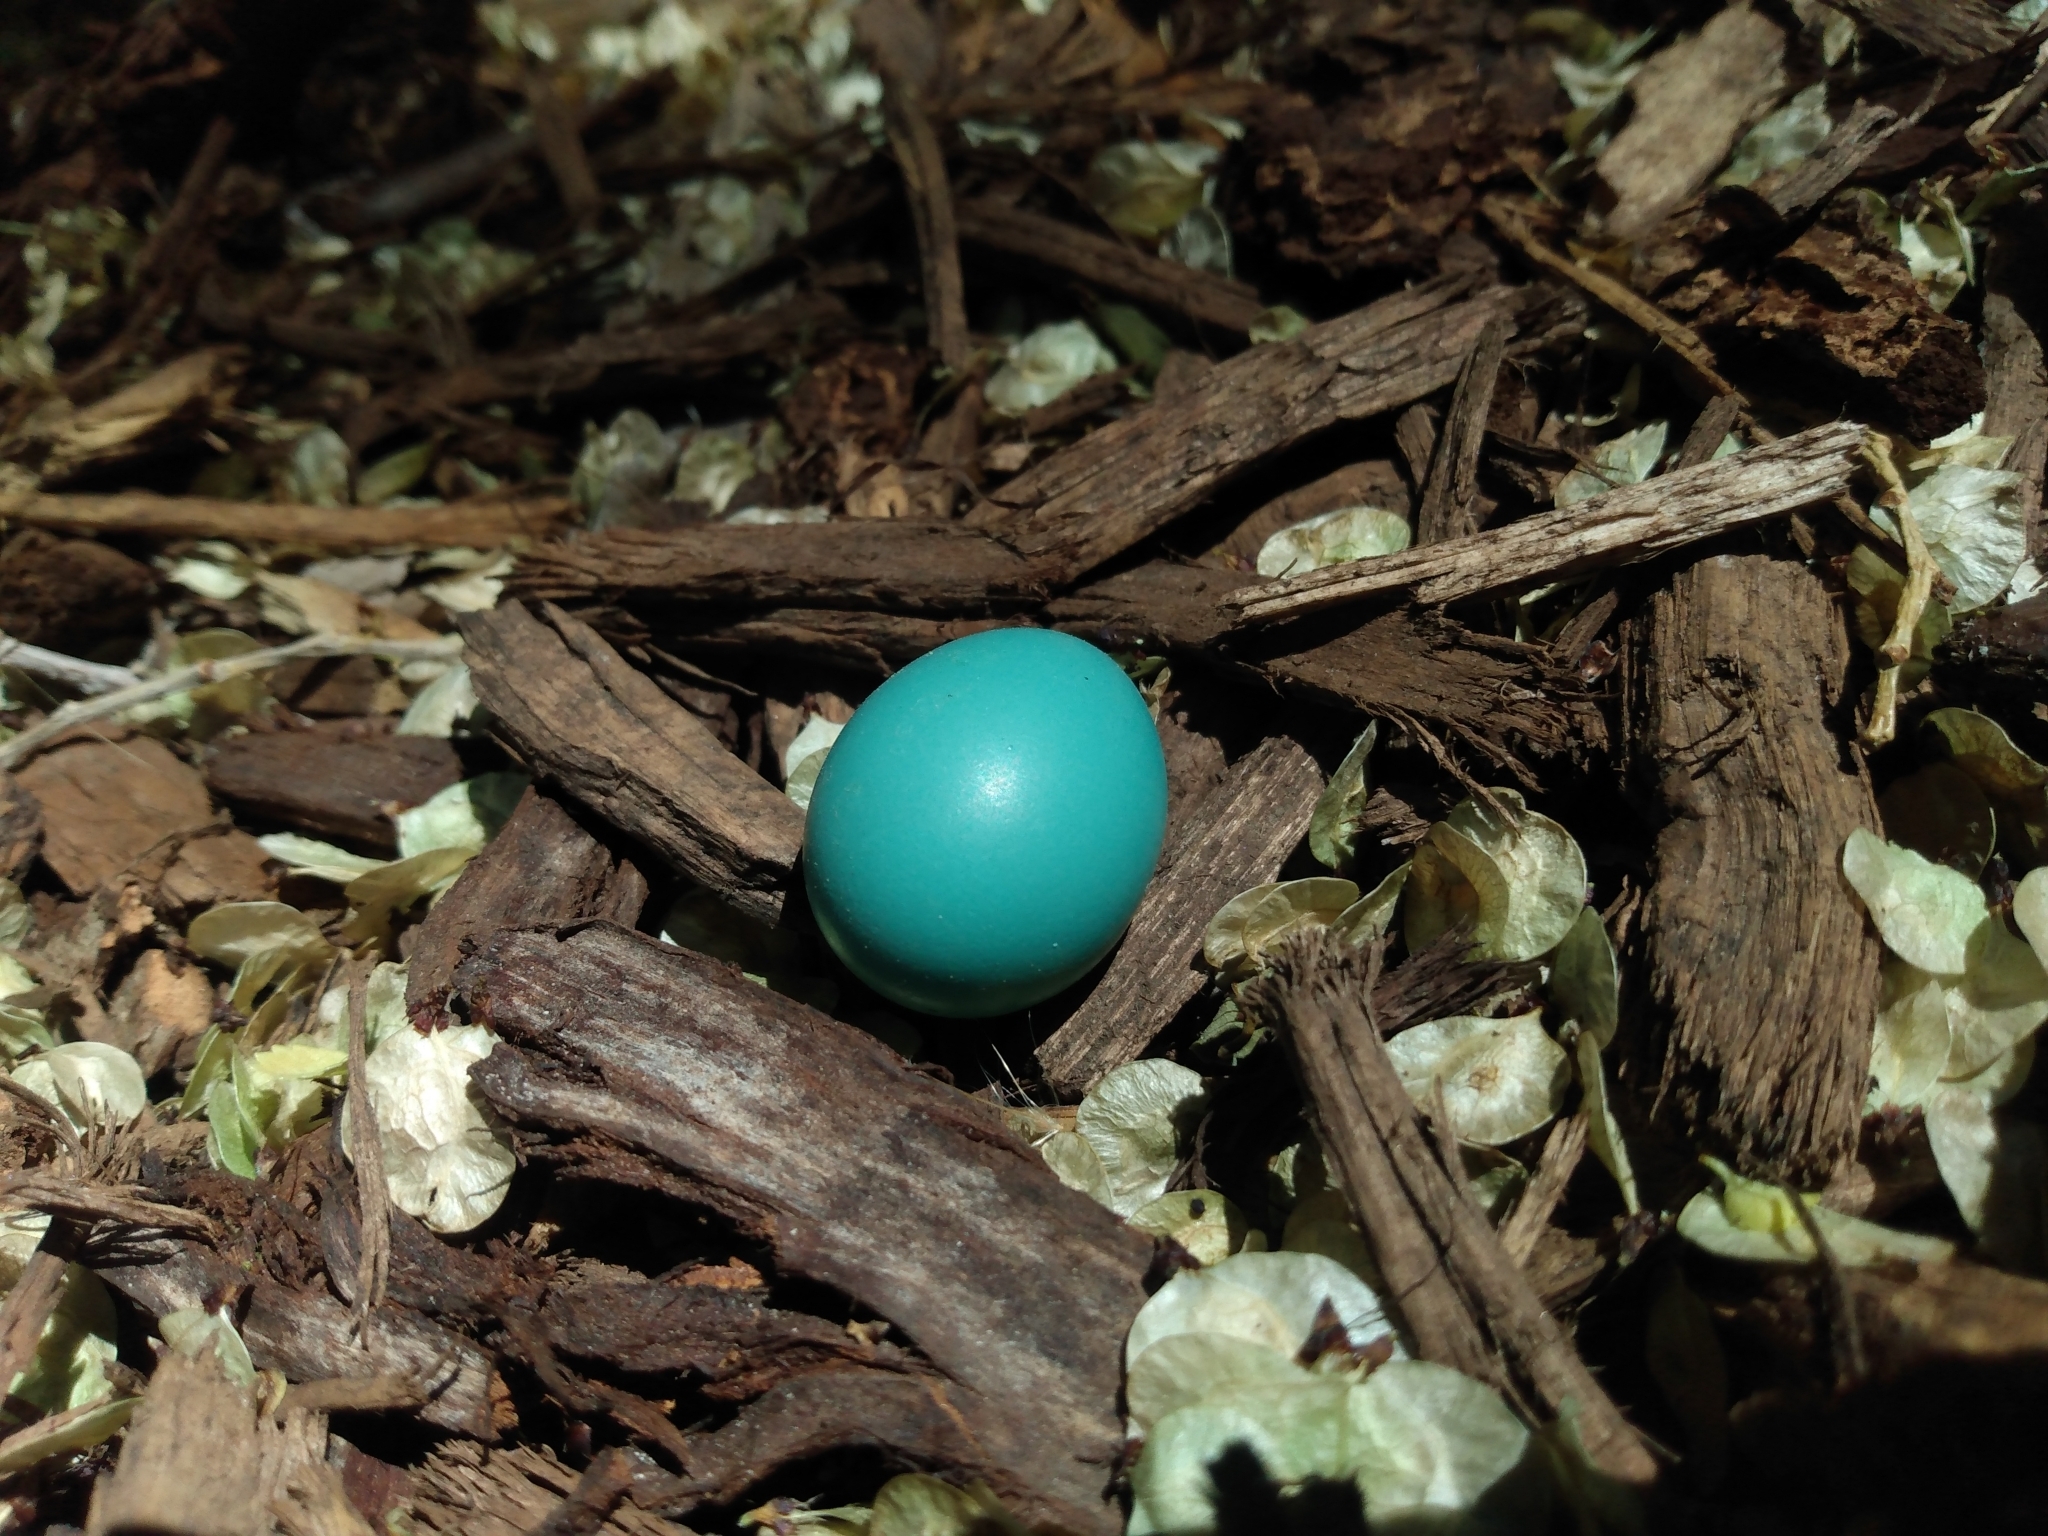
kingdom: Animalia
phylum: Chordata
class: Aves
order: Passeriformes
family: Turdidae
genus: Turdus
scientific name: Turdus migratorius
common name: American robin
